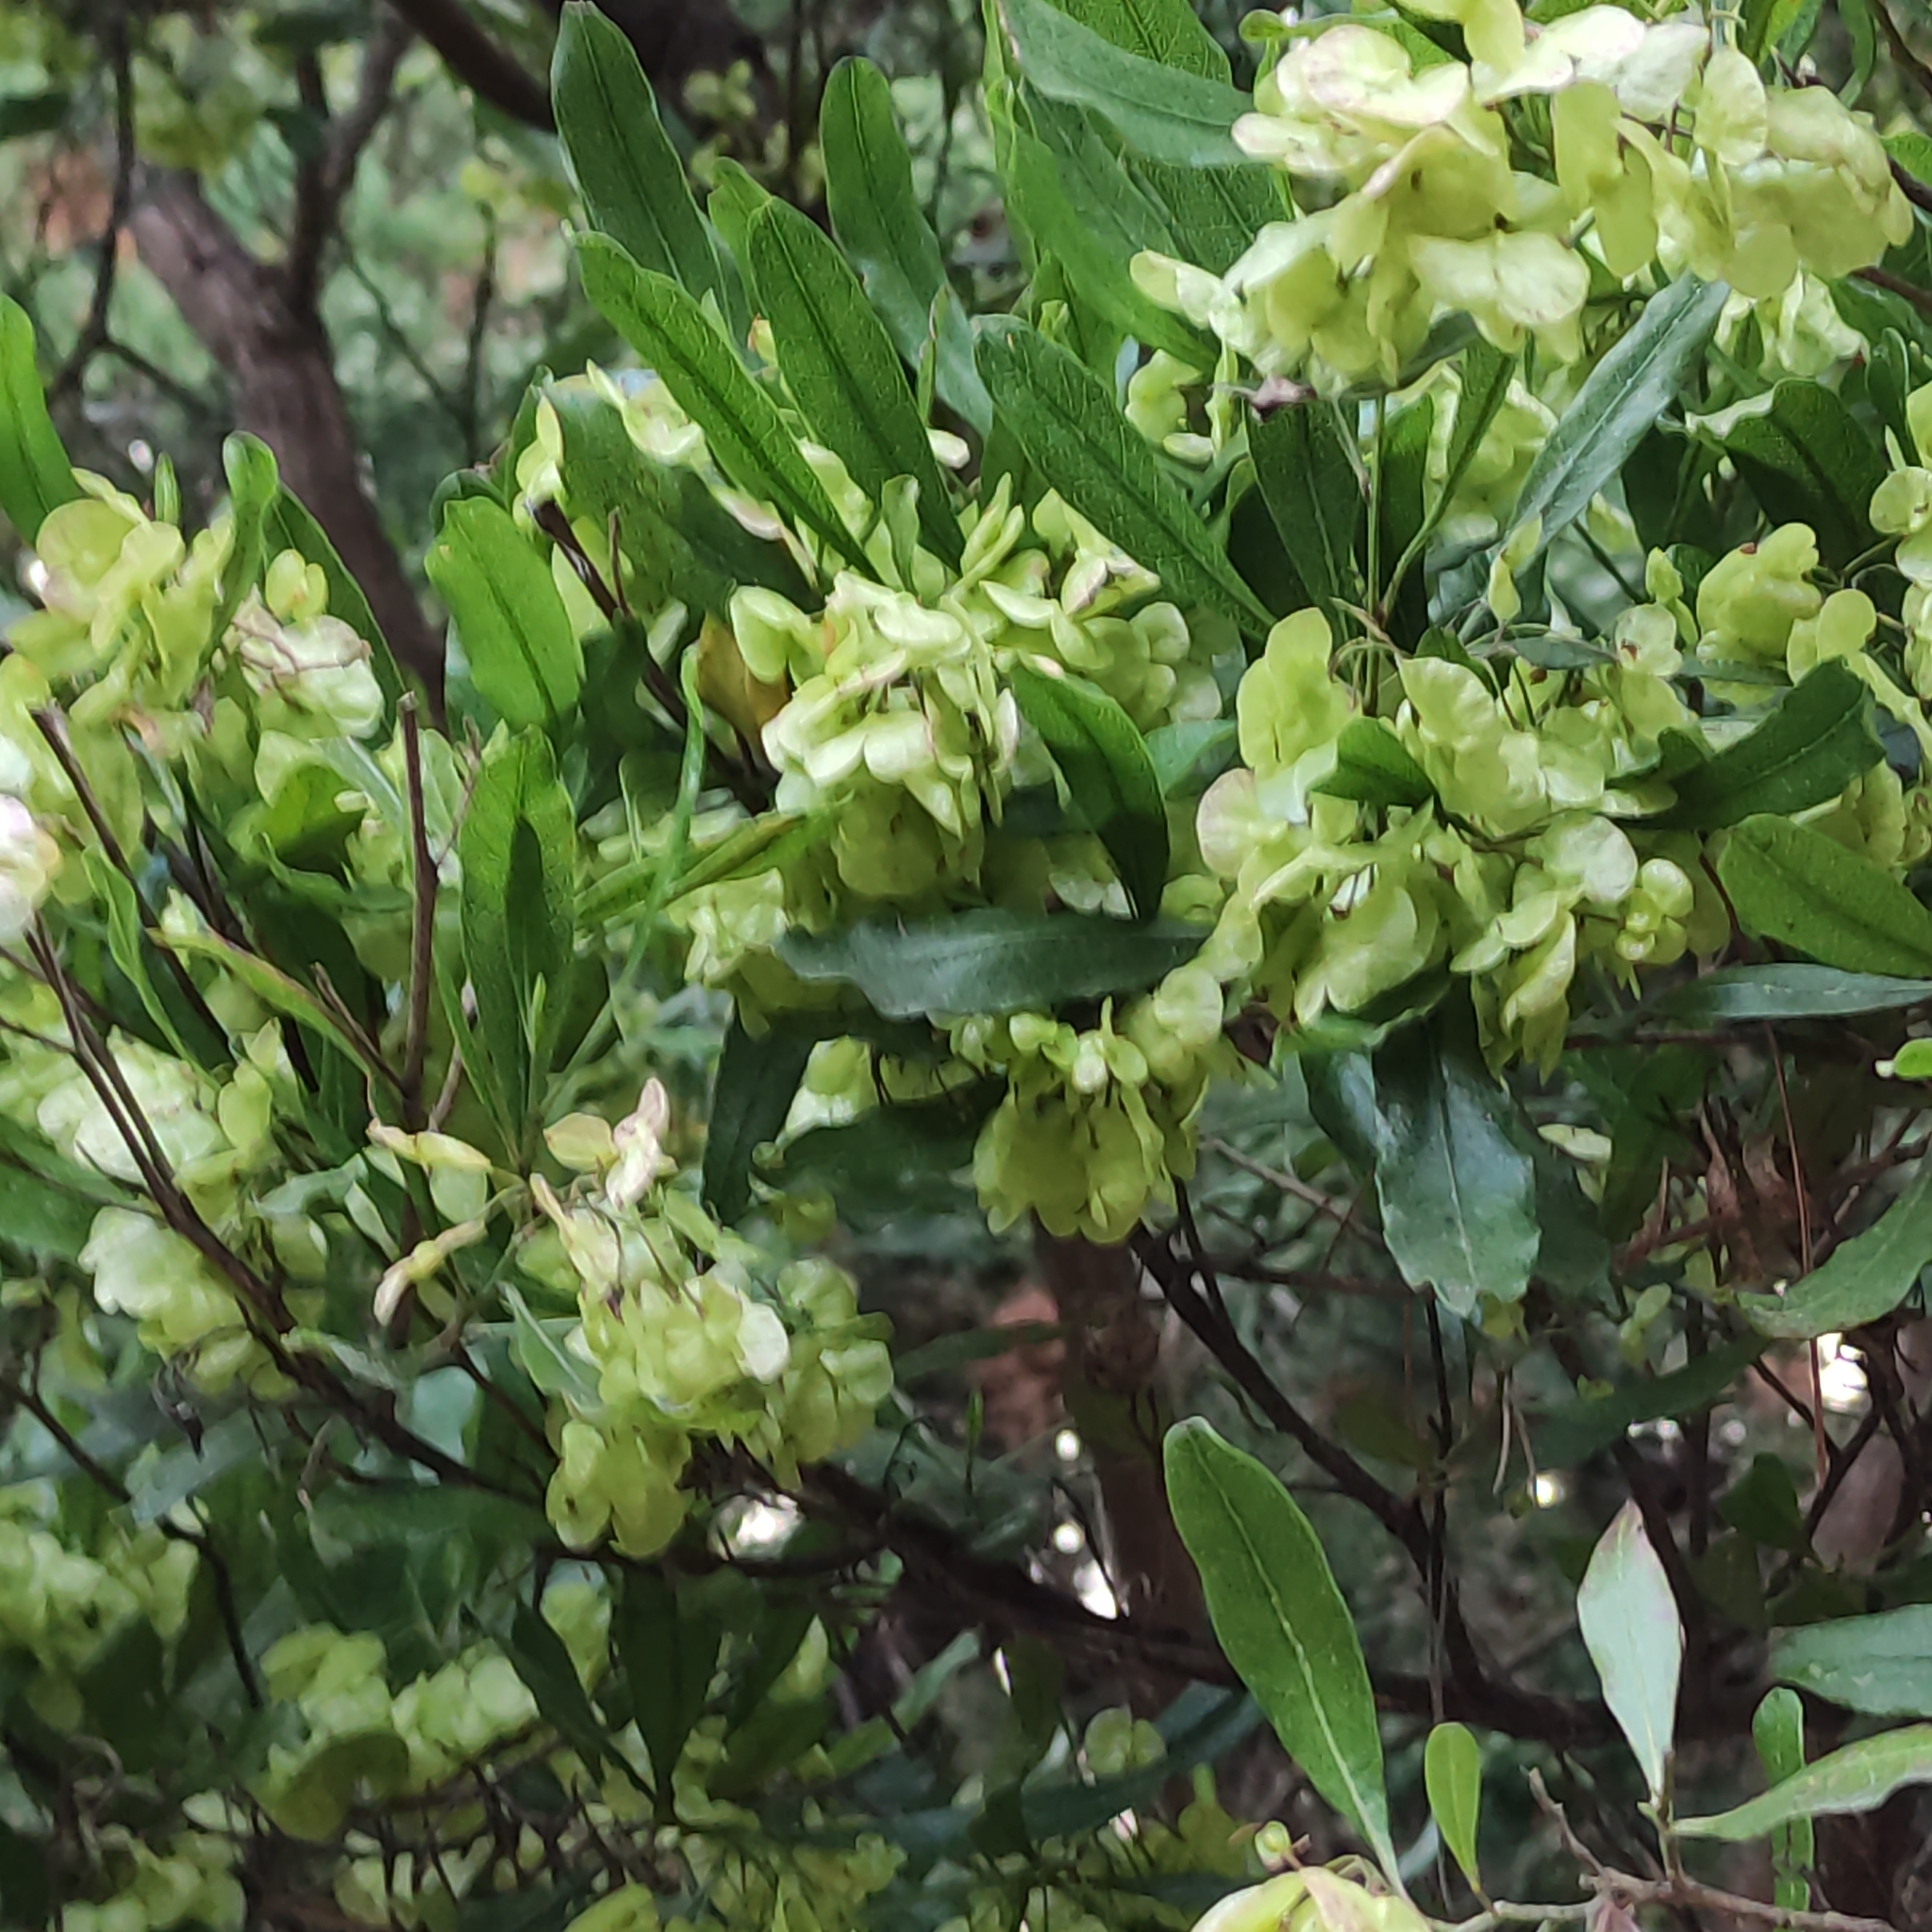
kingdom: Plantae
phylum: Tracheophyta
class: Magnoliopsida
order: Sapindales
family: Sapindaceae
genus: Dodonaea
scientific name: Dodonaea viscosa
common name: Hopbush
